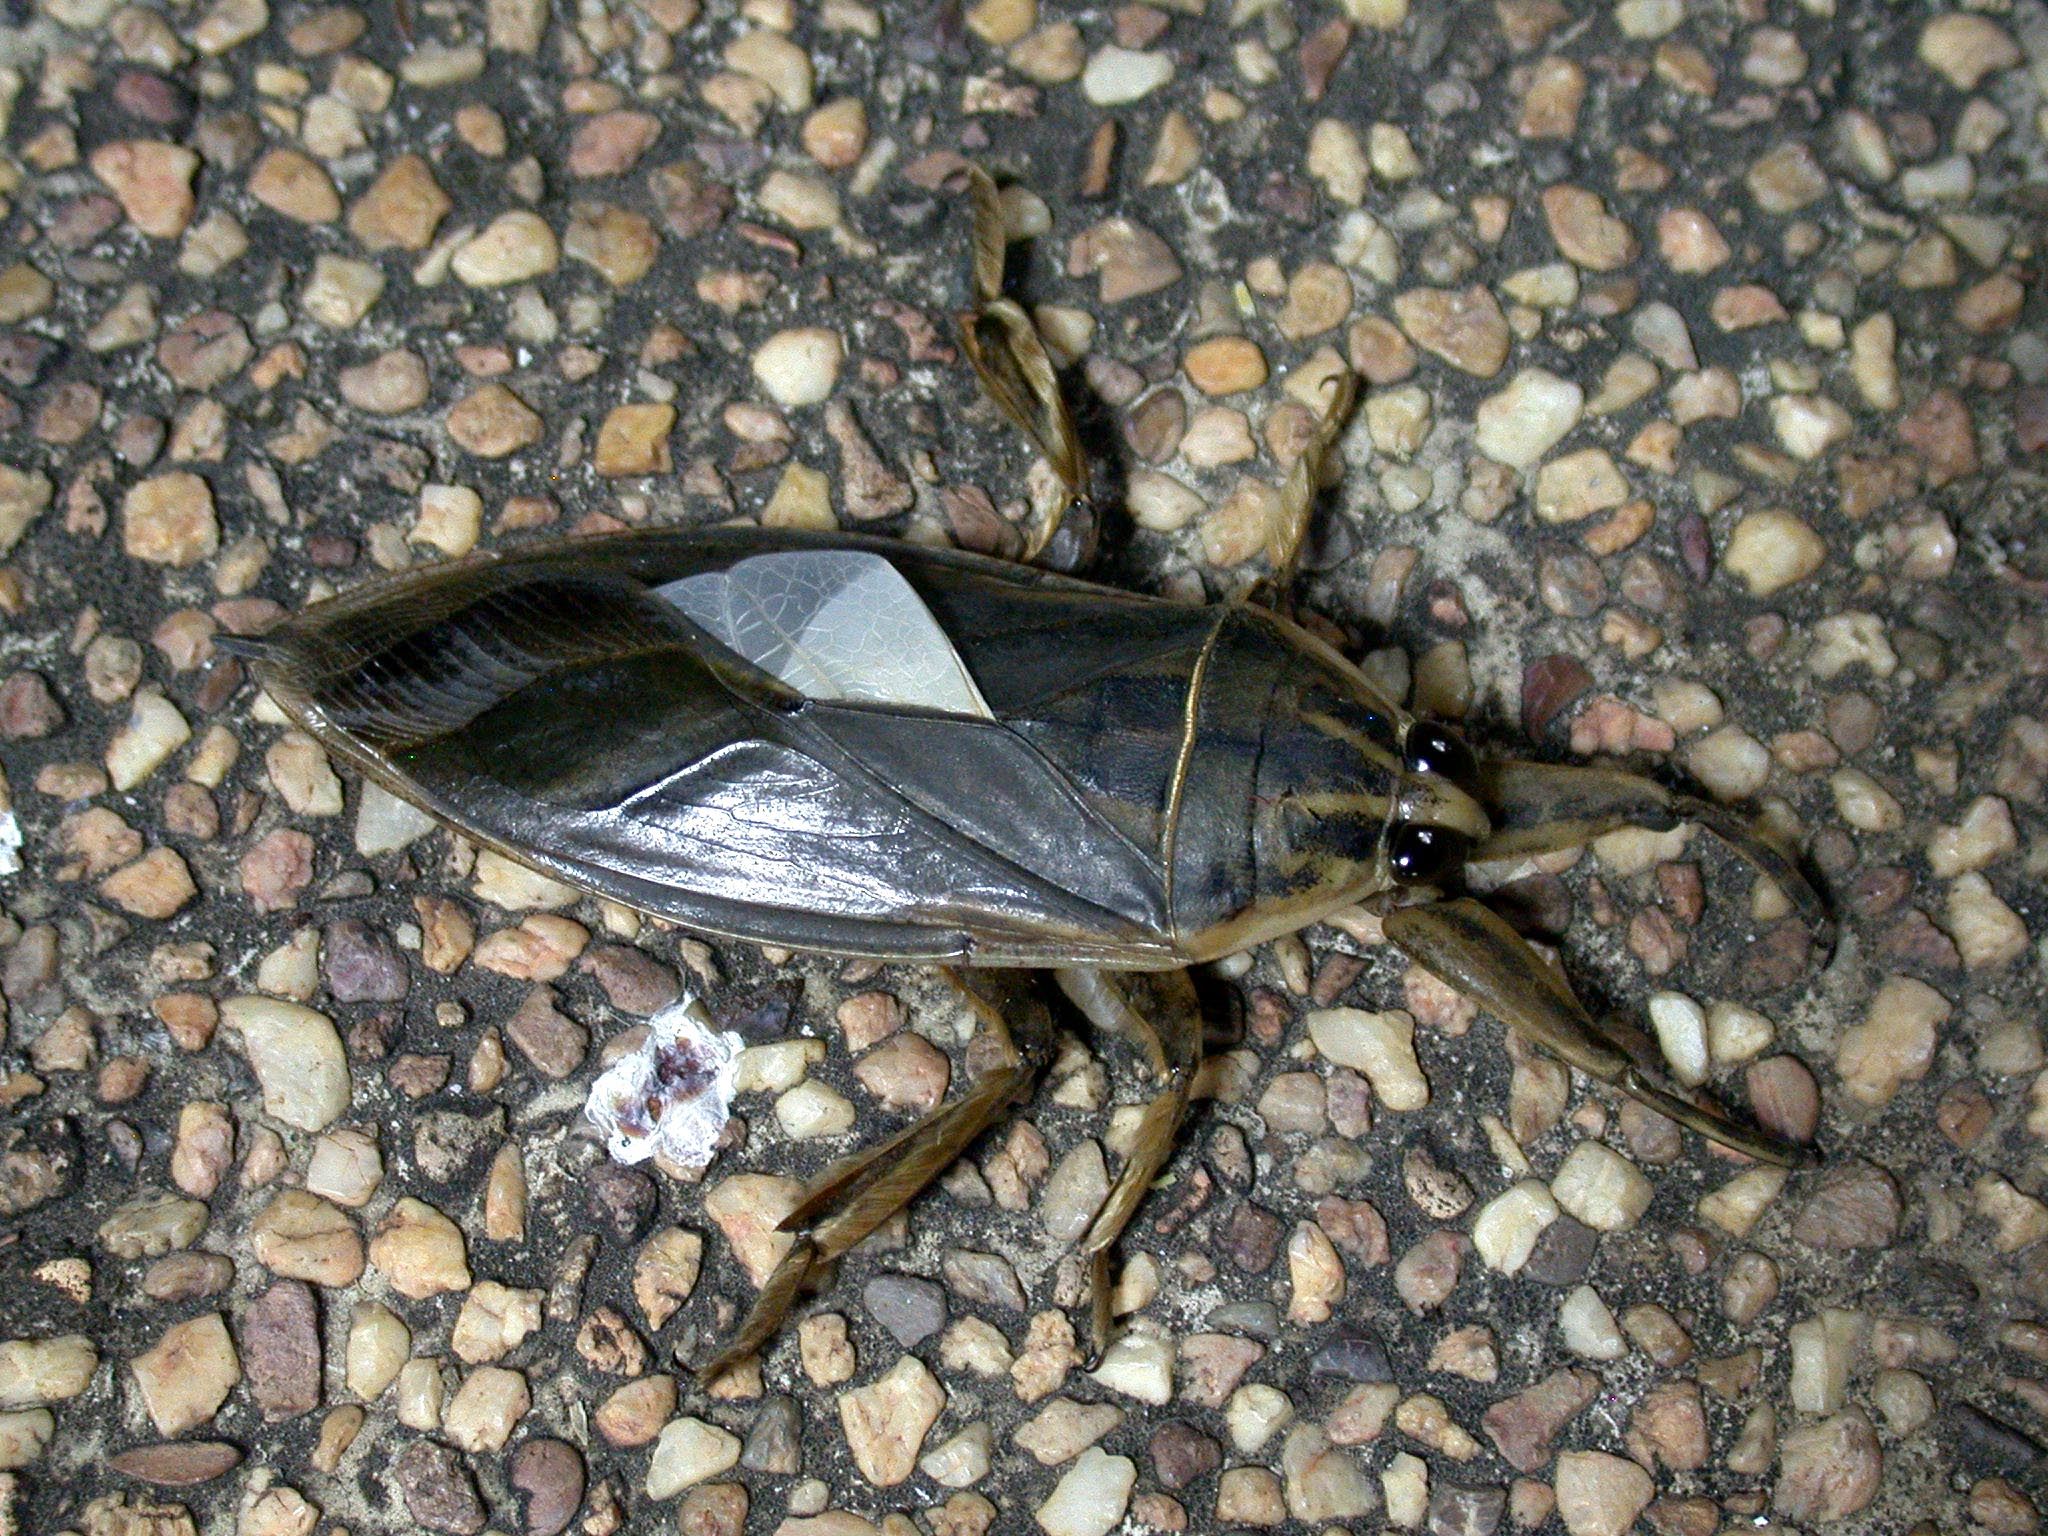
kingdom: Animalia
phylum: Arthropoda
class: Insecta
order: Hemiptera
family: Belostomatidae
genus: Lethocerus
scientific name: Lethocerus indicus
